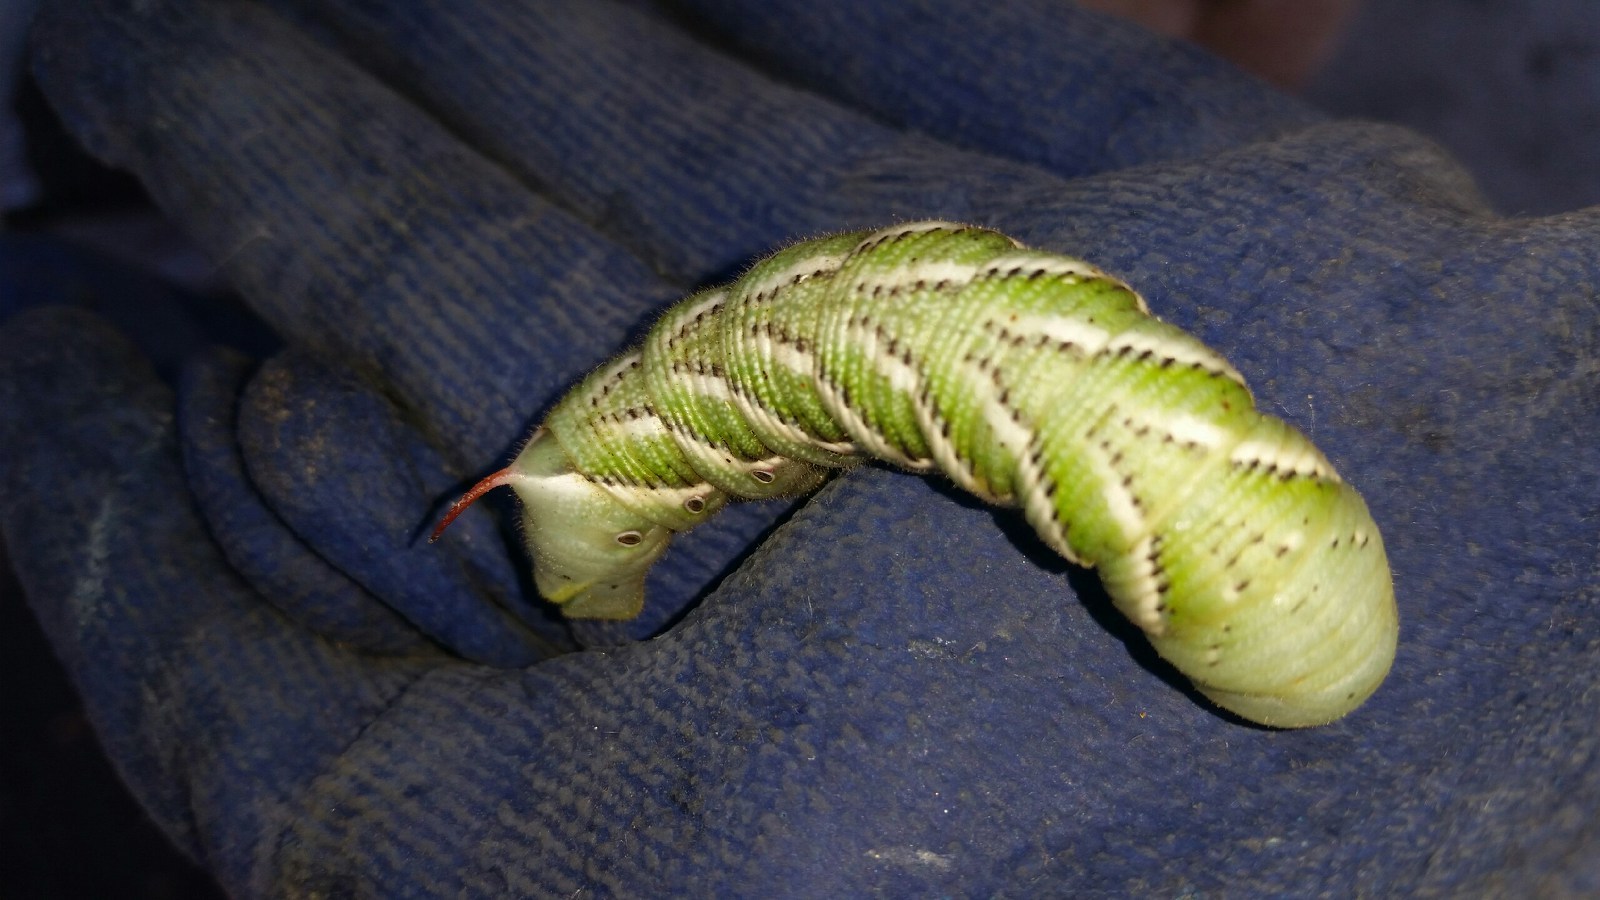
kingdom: Animalia
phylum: Arthropoda
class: Insecta
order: Lepidoptera
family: Sphingidae
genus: Manduca
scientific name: Manduca sexta
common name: Carolina sphinx
